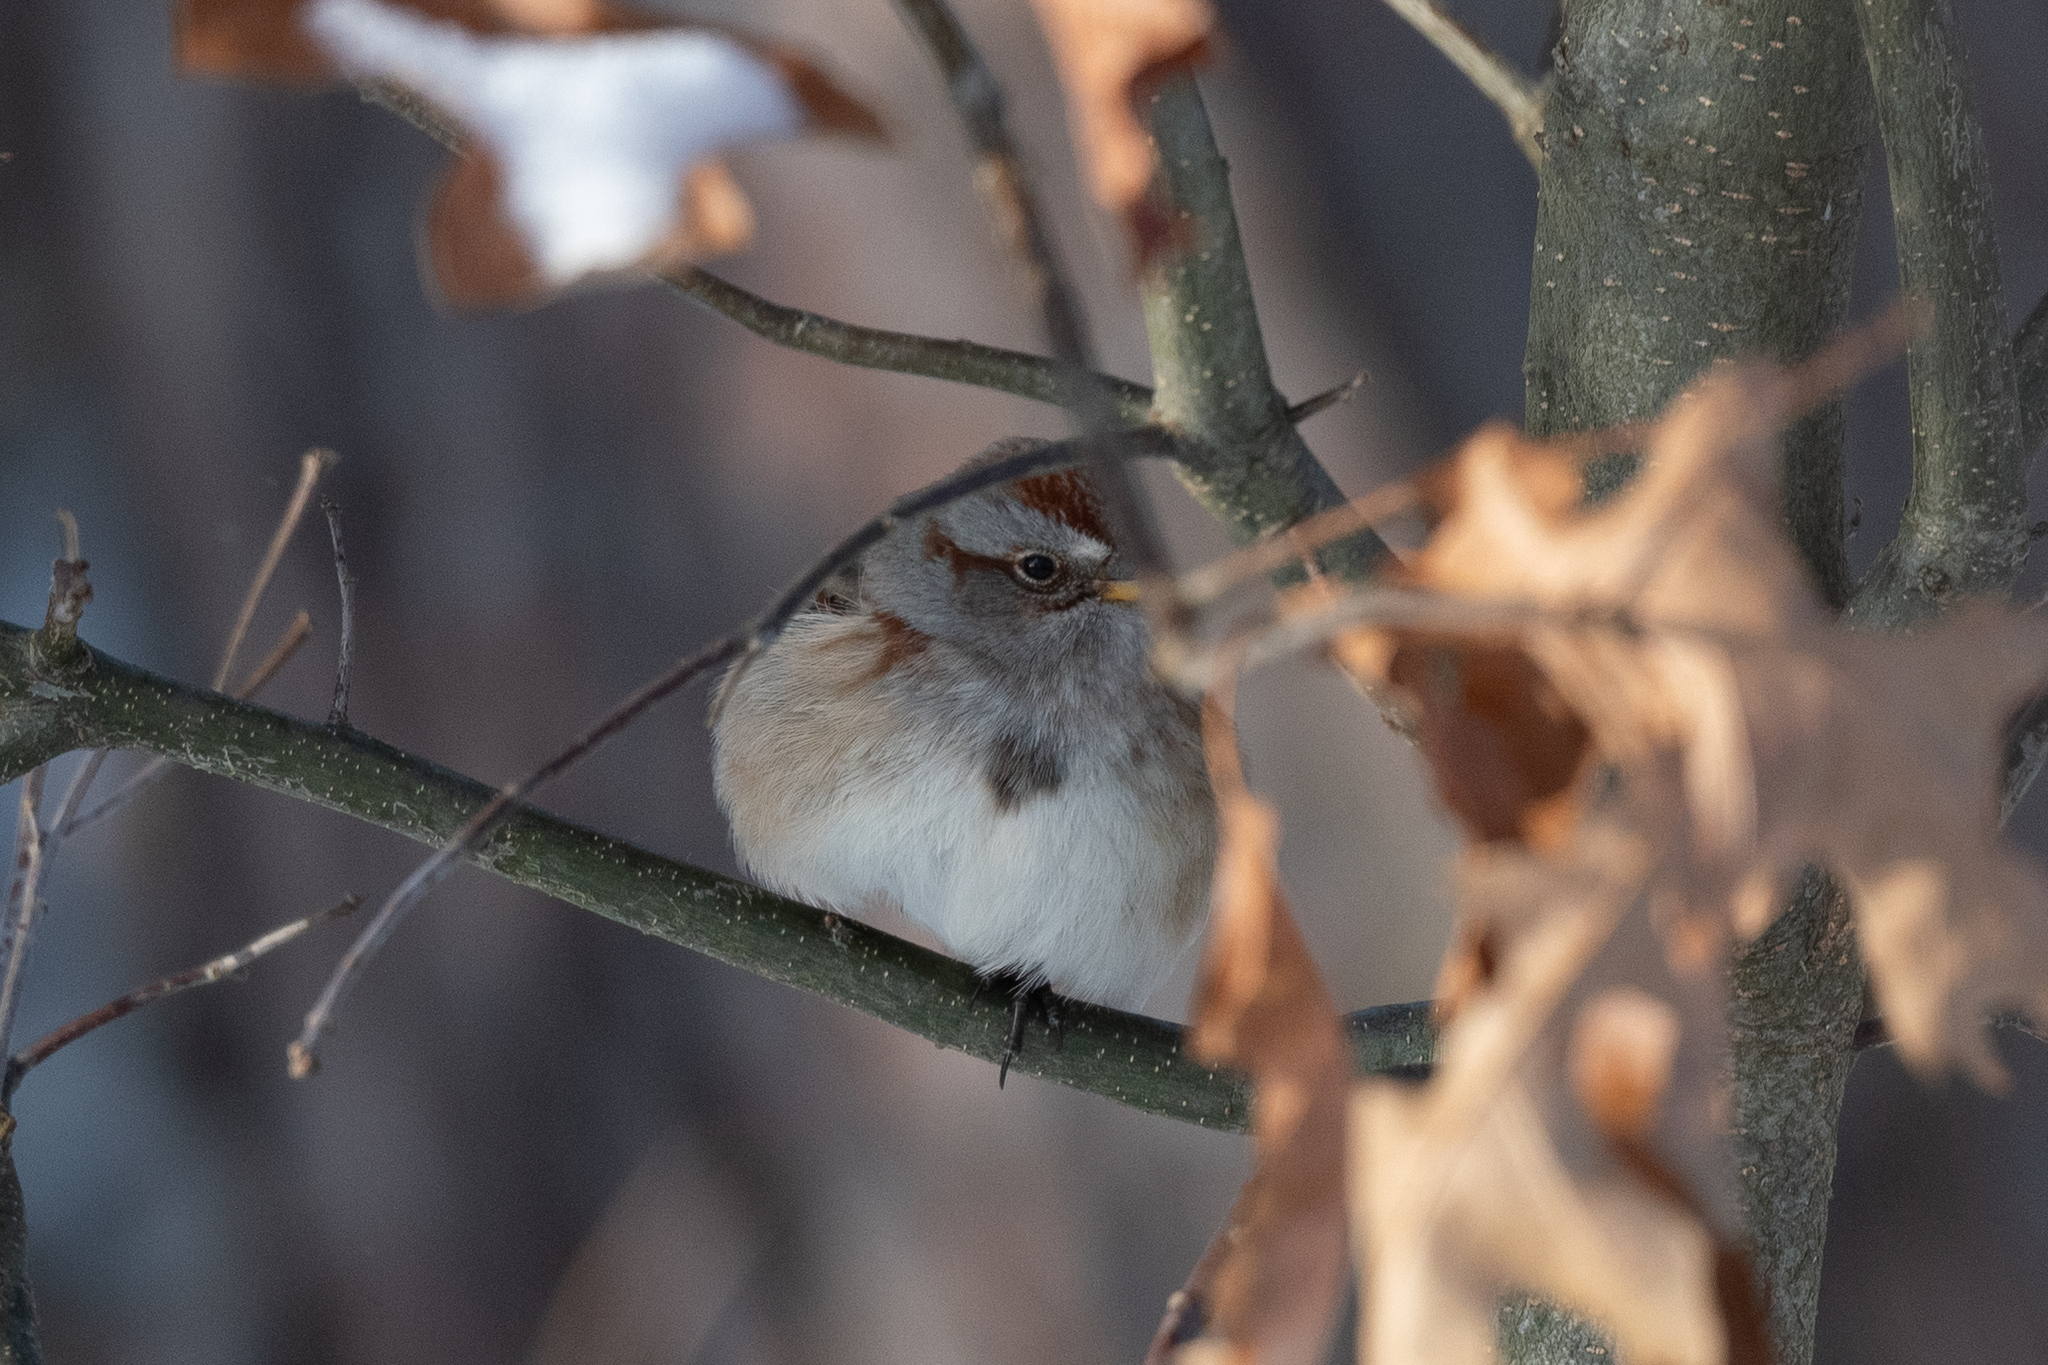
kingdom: Animalia
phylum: Chordata
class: Aves
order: Passeriformes
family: Passerellidae
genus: Spizelloides
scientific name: Spizelloides arborea
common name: American tree sparrow
